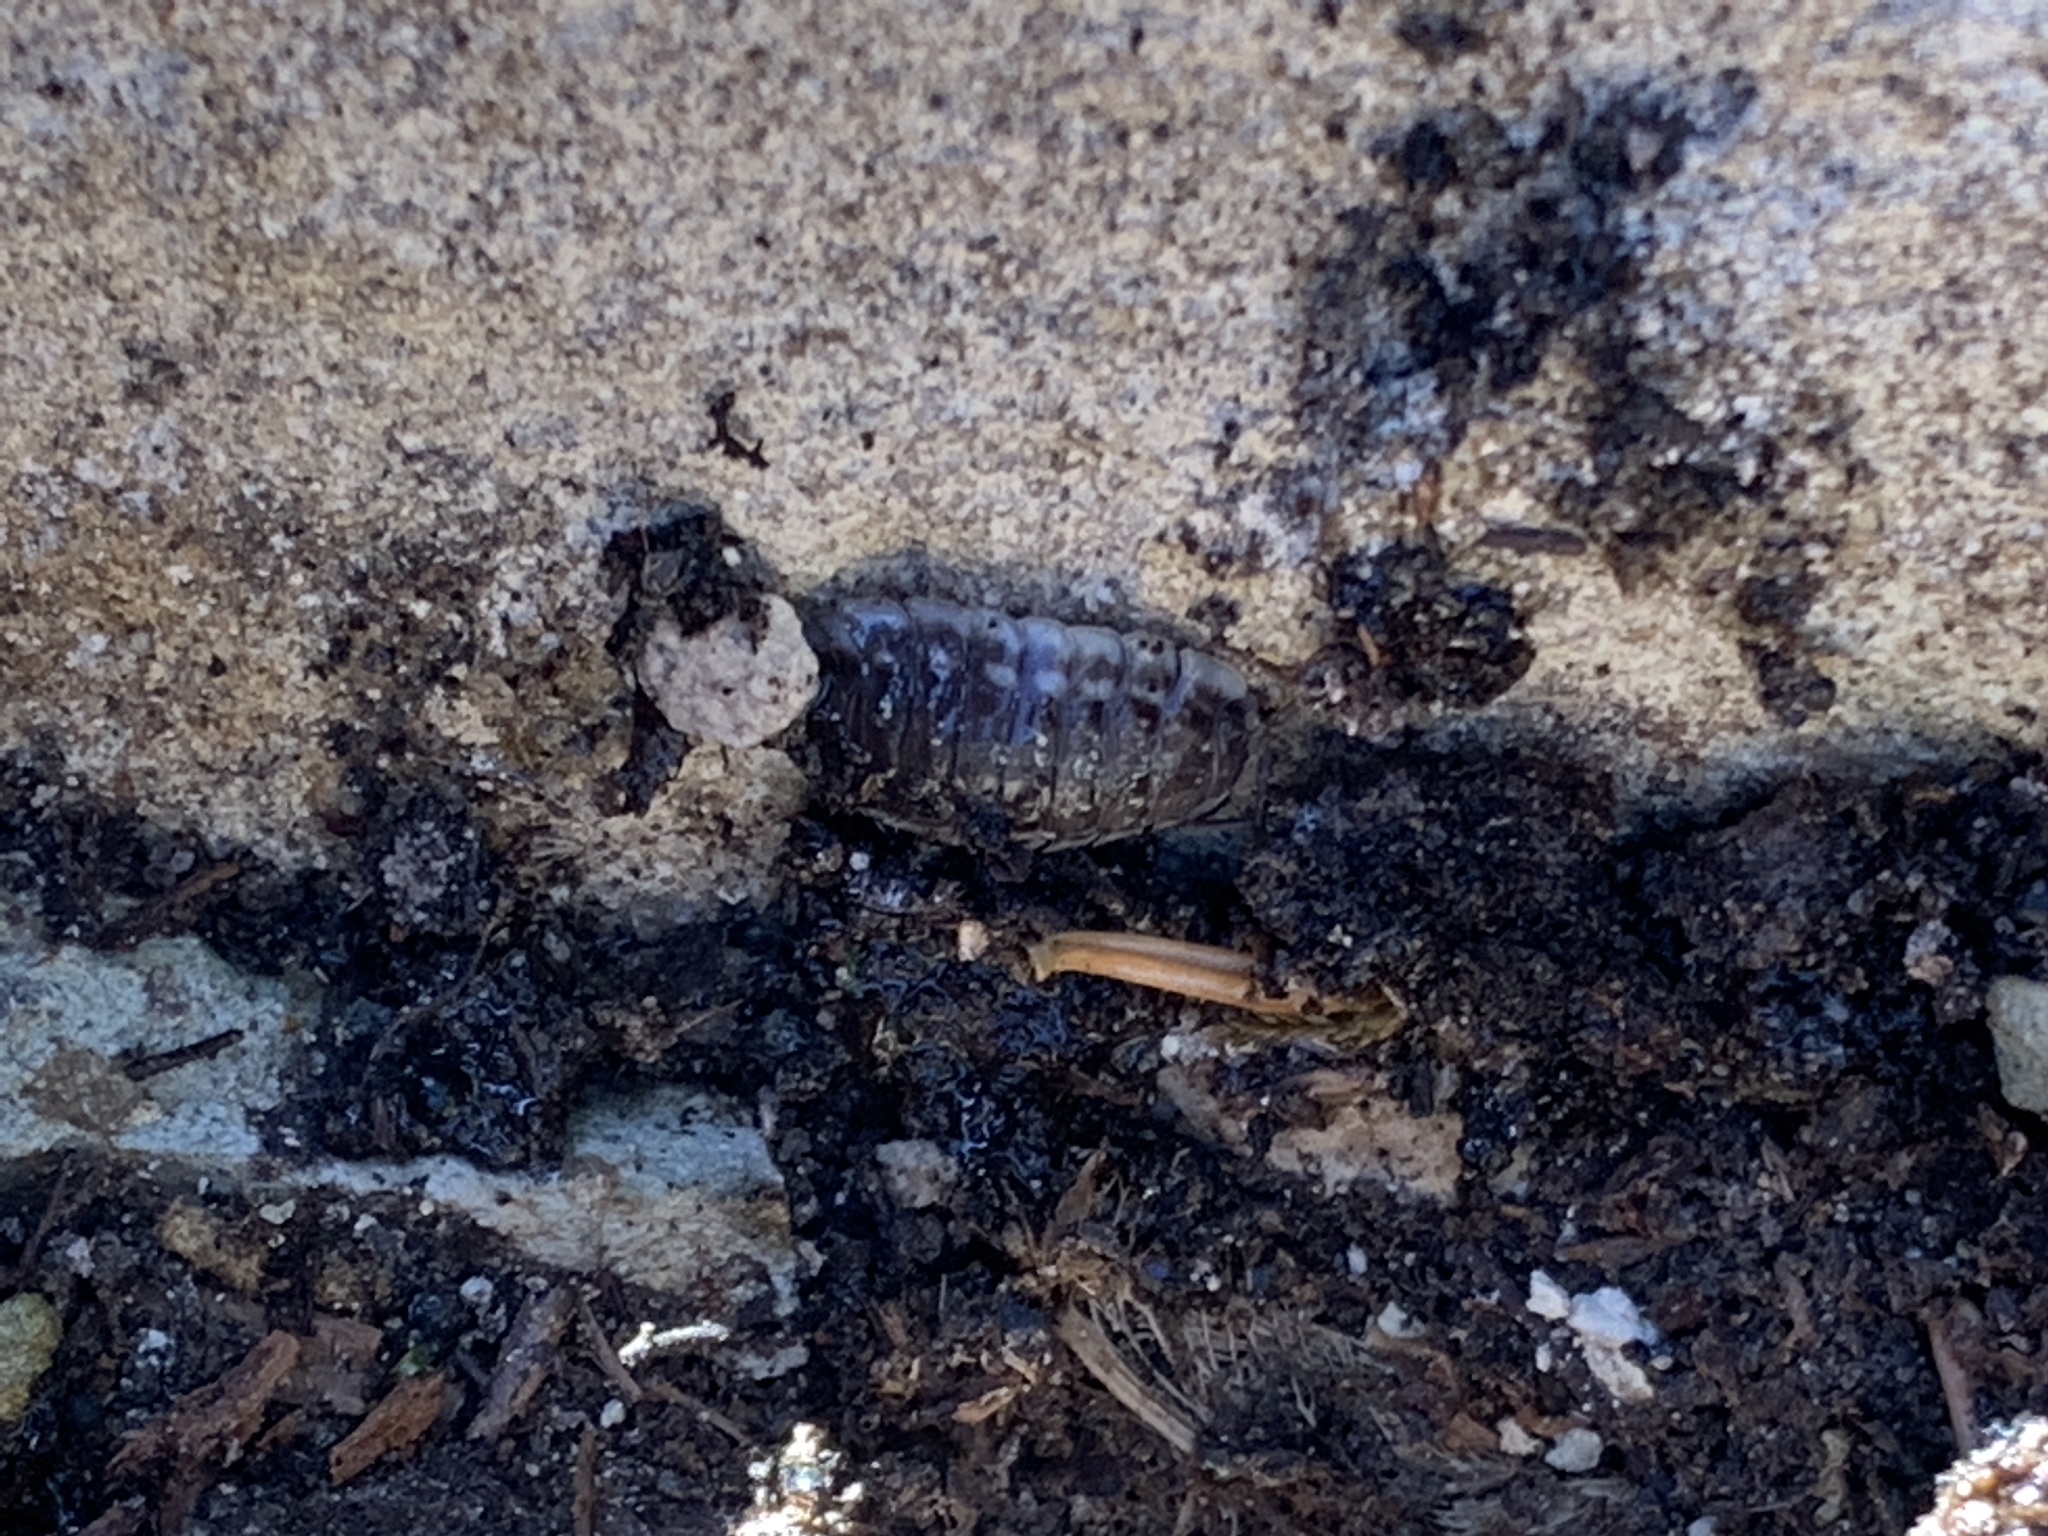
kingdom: Animalia
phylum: Arthropoda
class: Malacostraca
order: Isopoda
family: Oniscidae
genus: Oniscus
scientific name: Oniscus asellus
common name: Common shiny woodlouse
